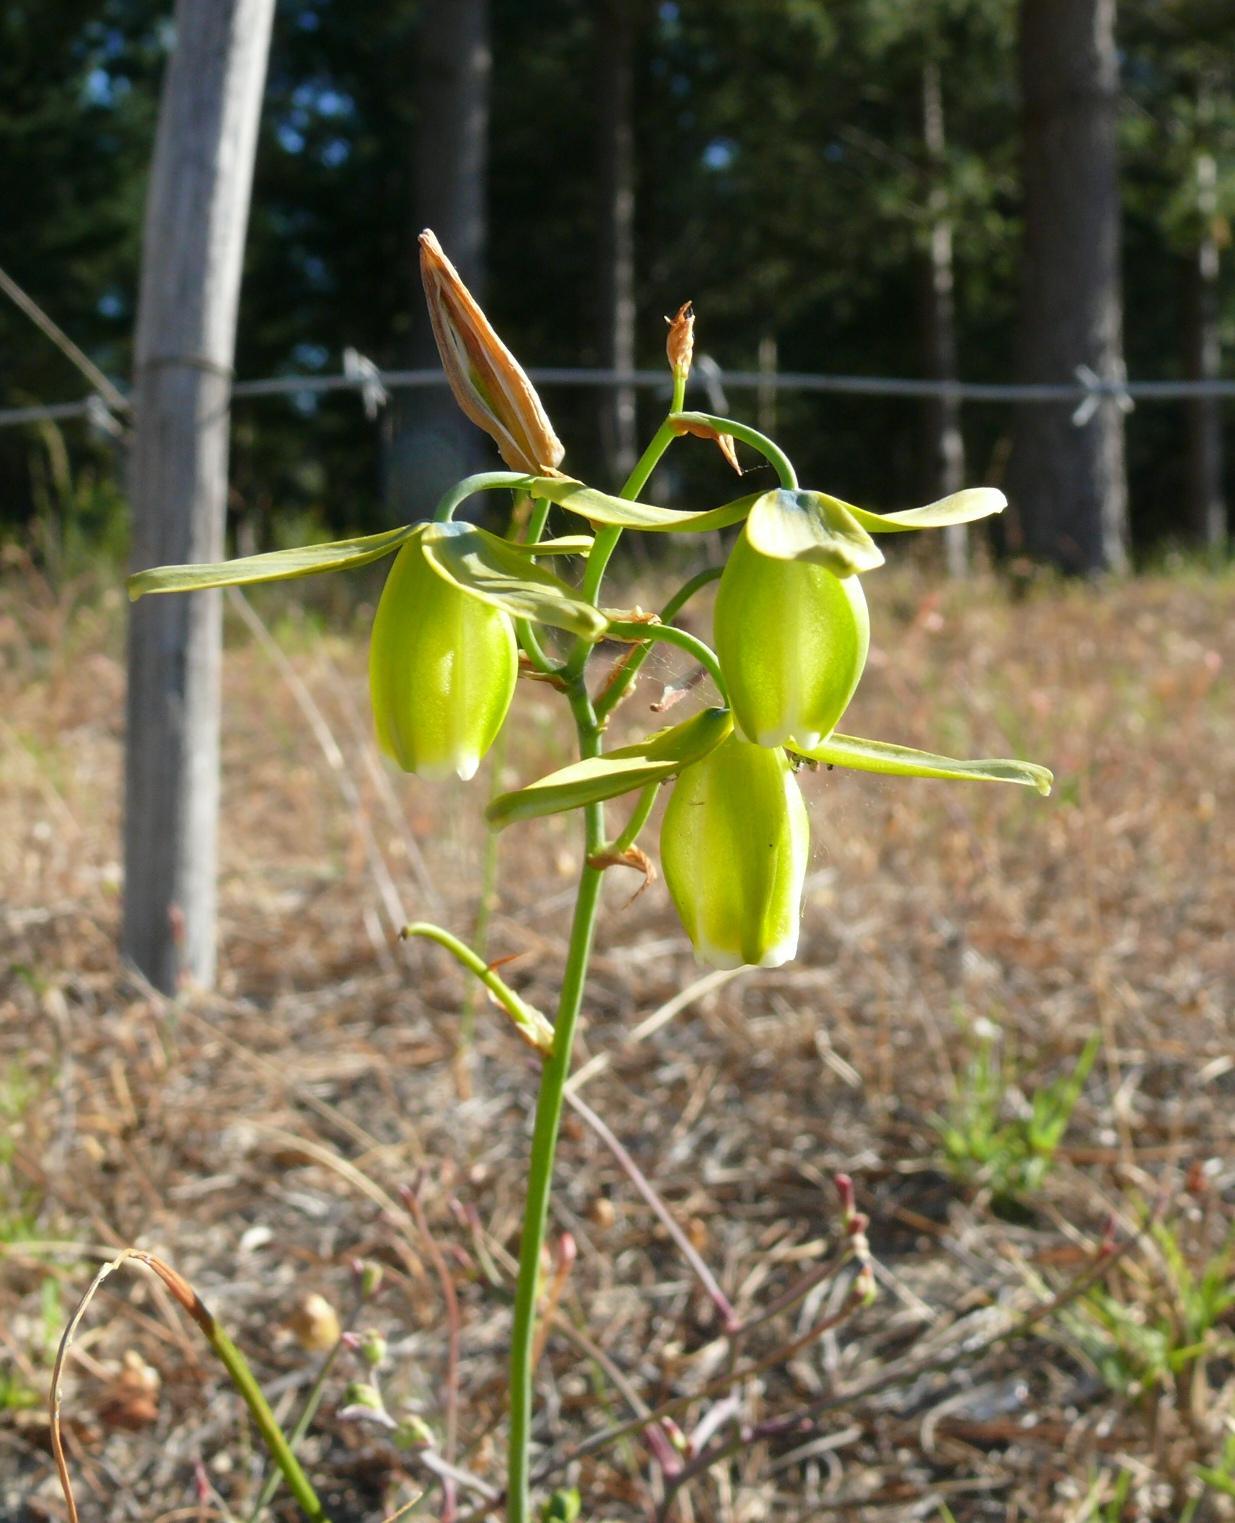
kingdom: Plantae
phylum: Tracheophyta
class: Liliopsida
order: Asparagales
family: Asparagaceae
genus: Albuca
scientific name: Albuca cooperi
